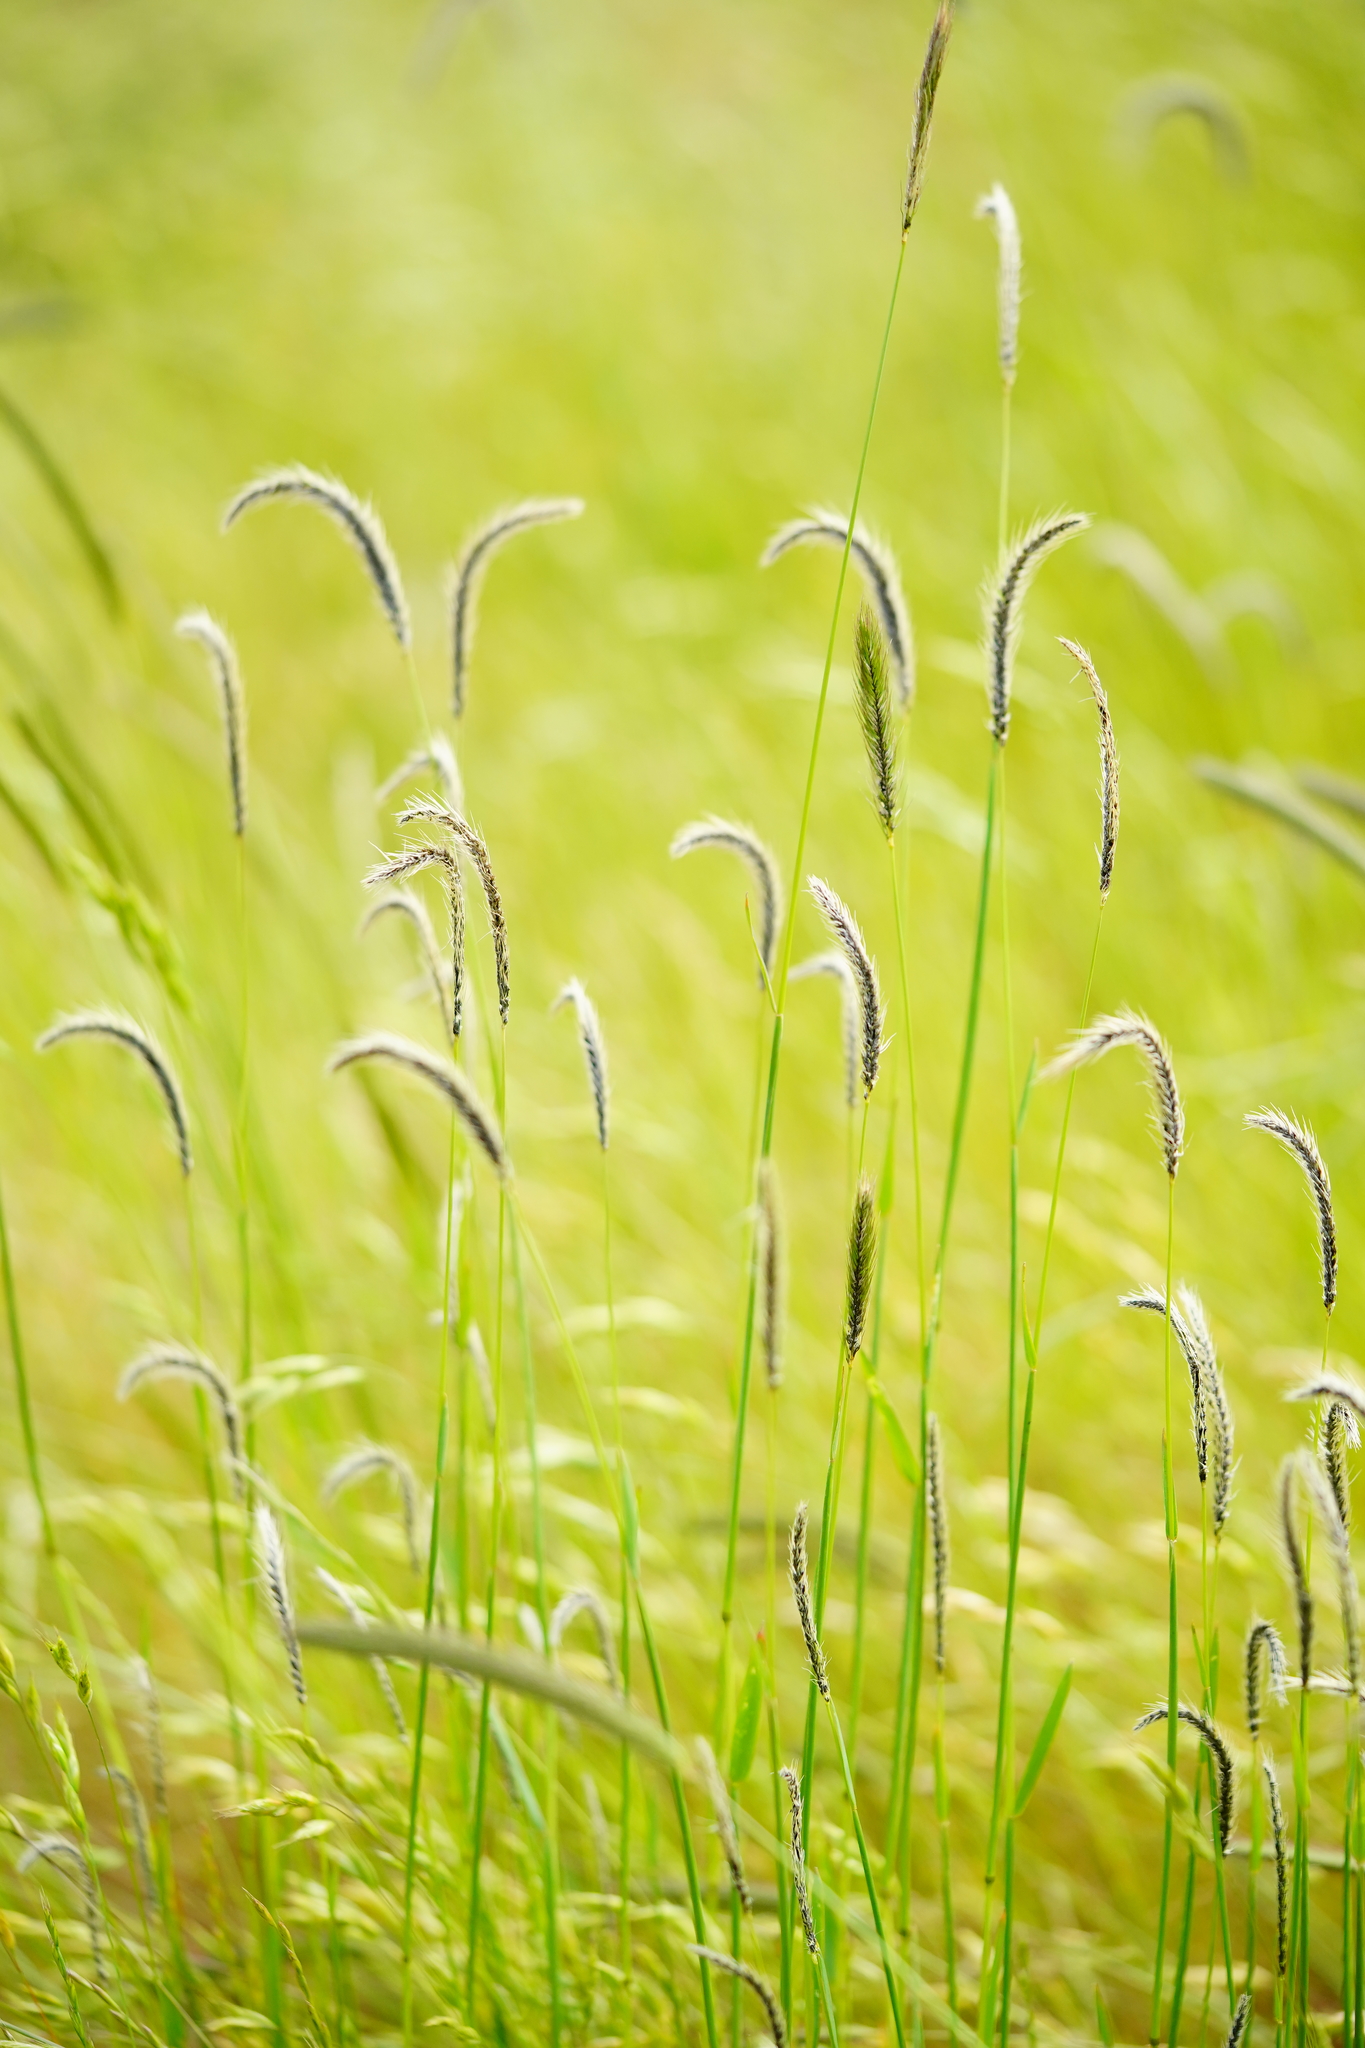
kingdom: Fungi
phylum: Basidiomycota
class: Ustilaginomycetes
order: Ustilaginales
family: Ustilaginaceae
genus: Ustilago
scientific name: Ustilago nuda
